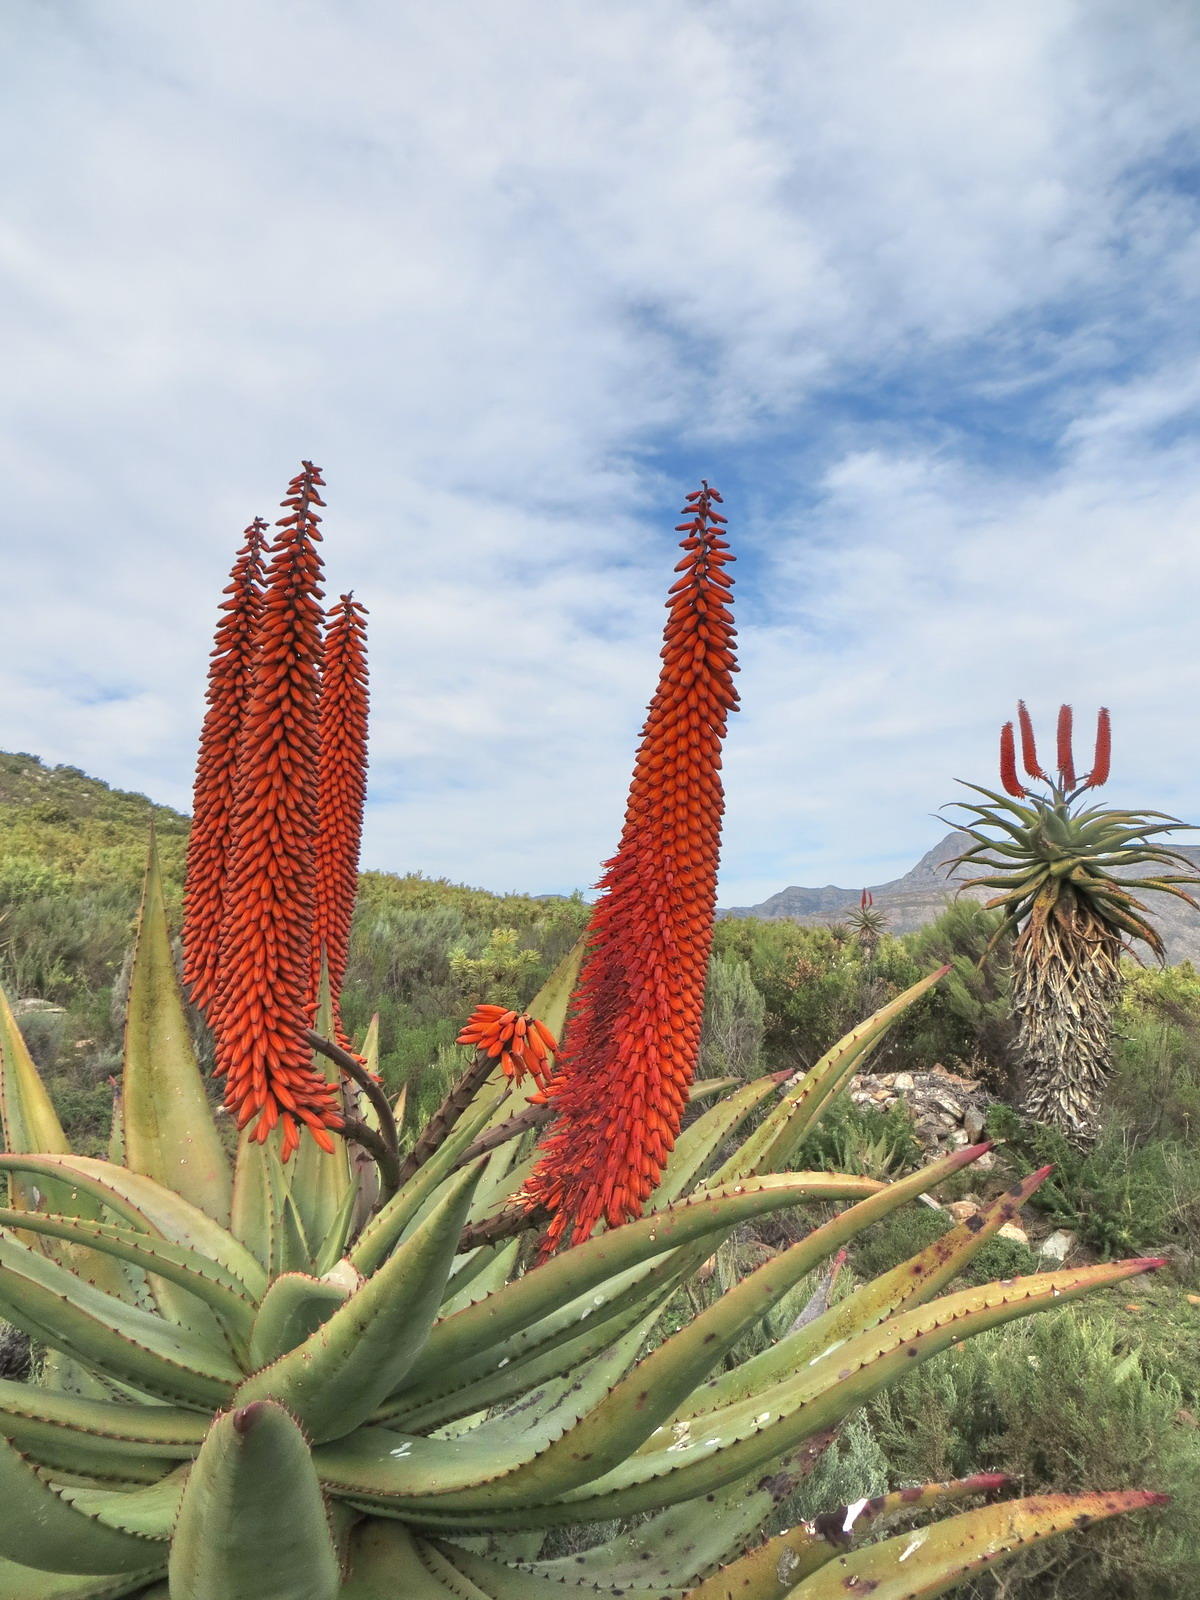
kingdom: Plantae
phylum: Tracheophyta
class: Liliopsida
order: Asparagales
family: Asphodelaceae
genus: Aloe
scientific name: Aloe ferox
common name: Bitter aloe
